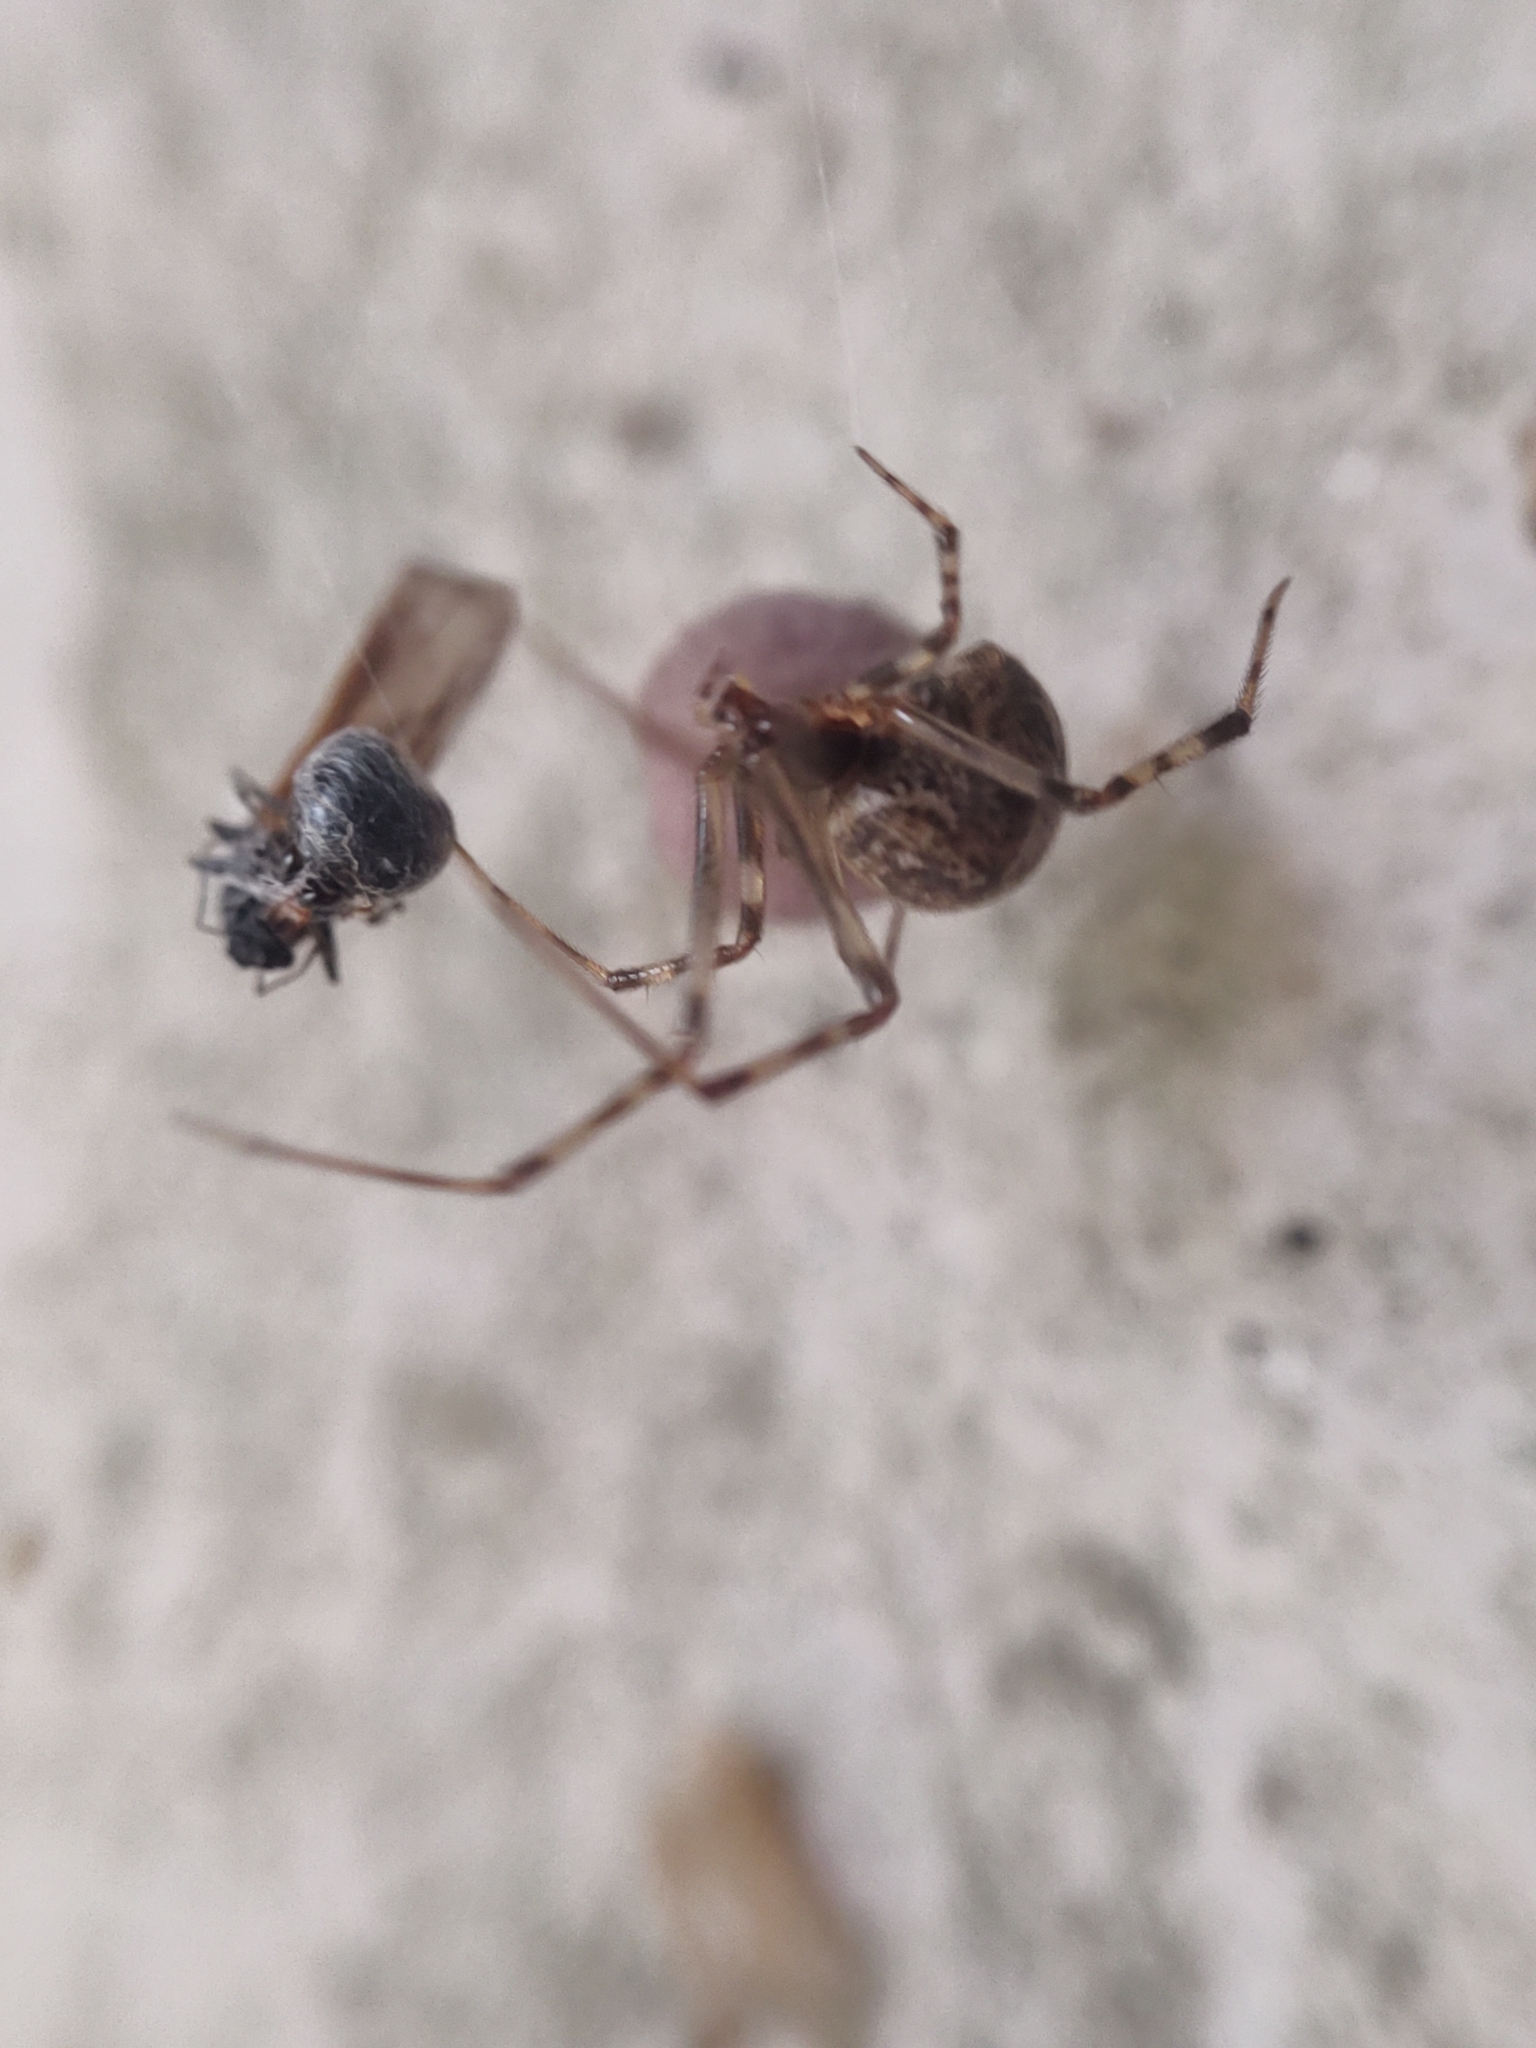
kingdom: Animalia
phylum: Arthropoda
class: Arachnida
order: Araneae
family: Theridiidae
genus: Parasteatoda
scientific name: Parasteatoda tepidariorum
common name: Common house spider
